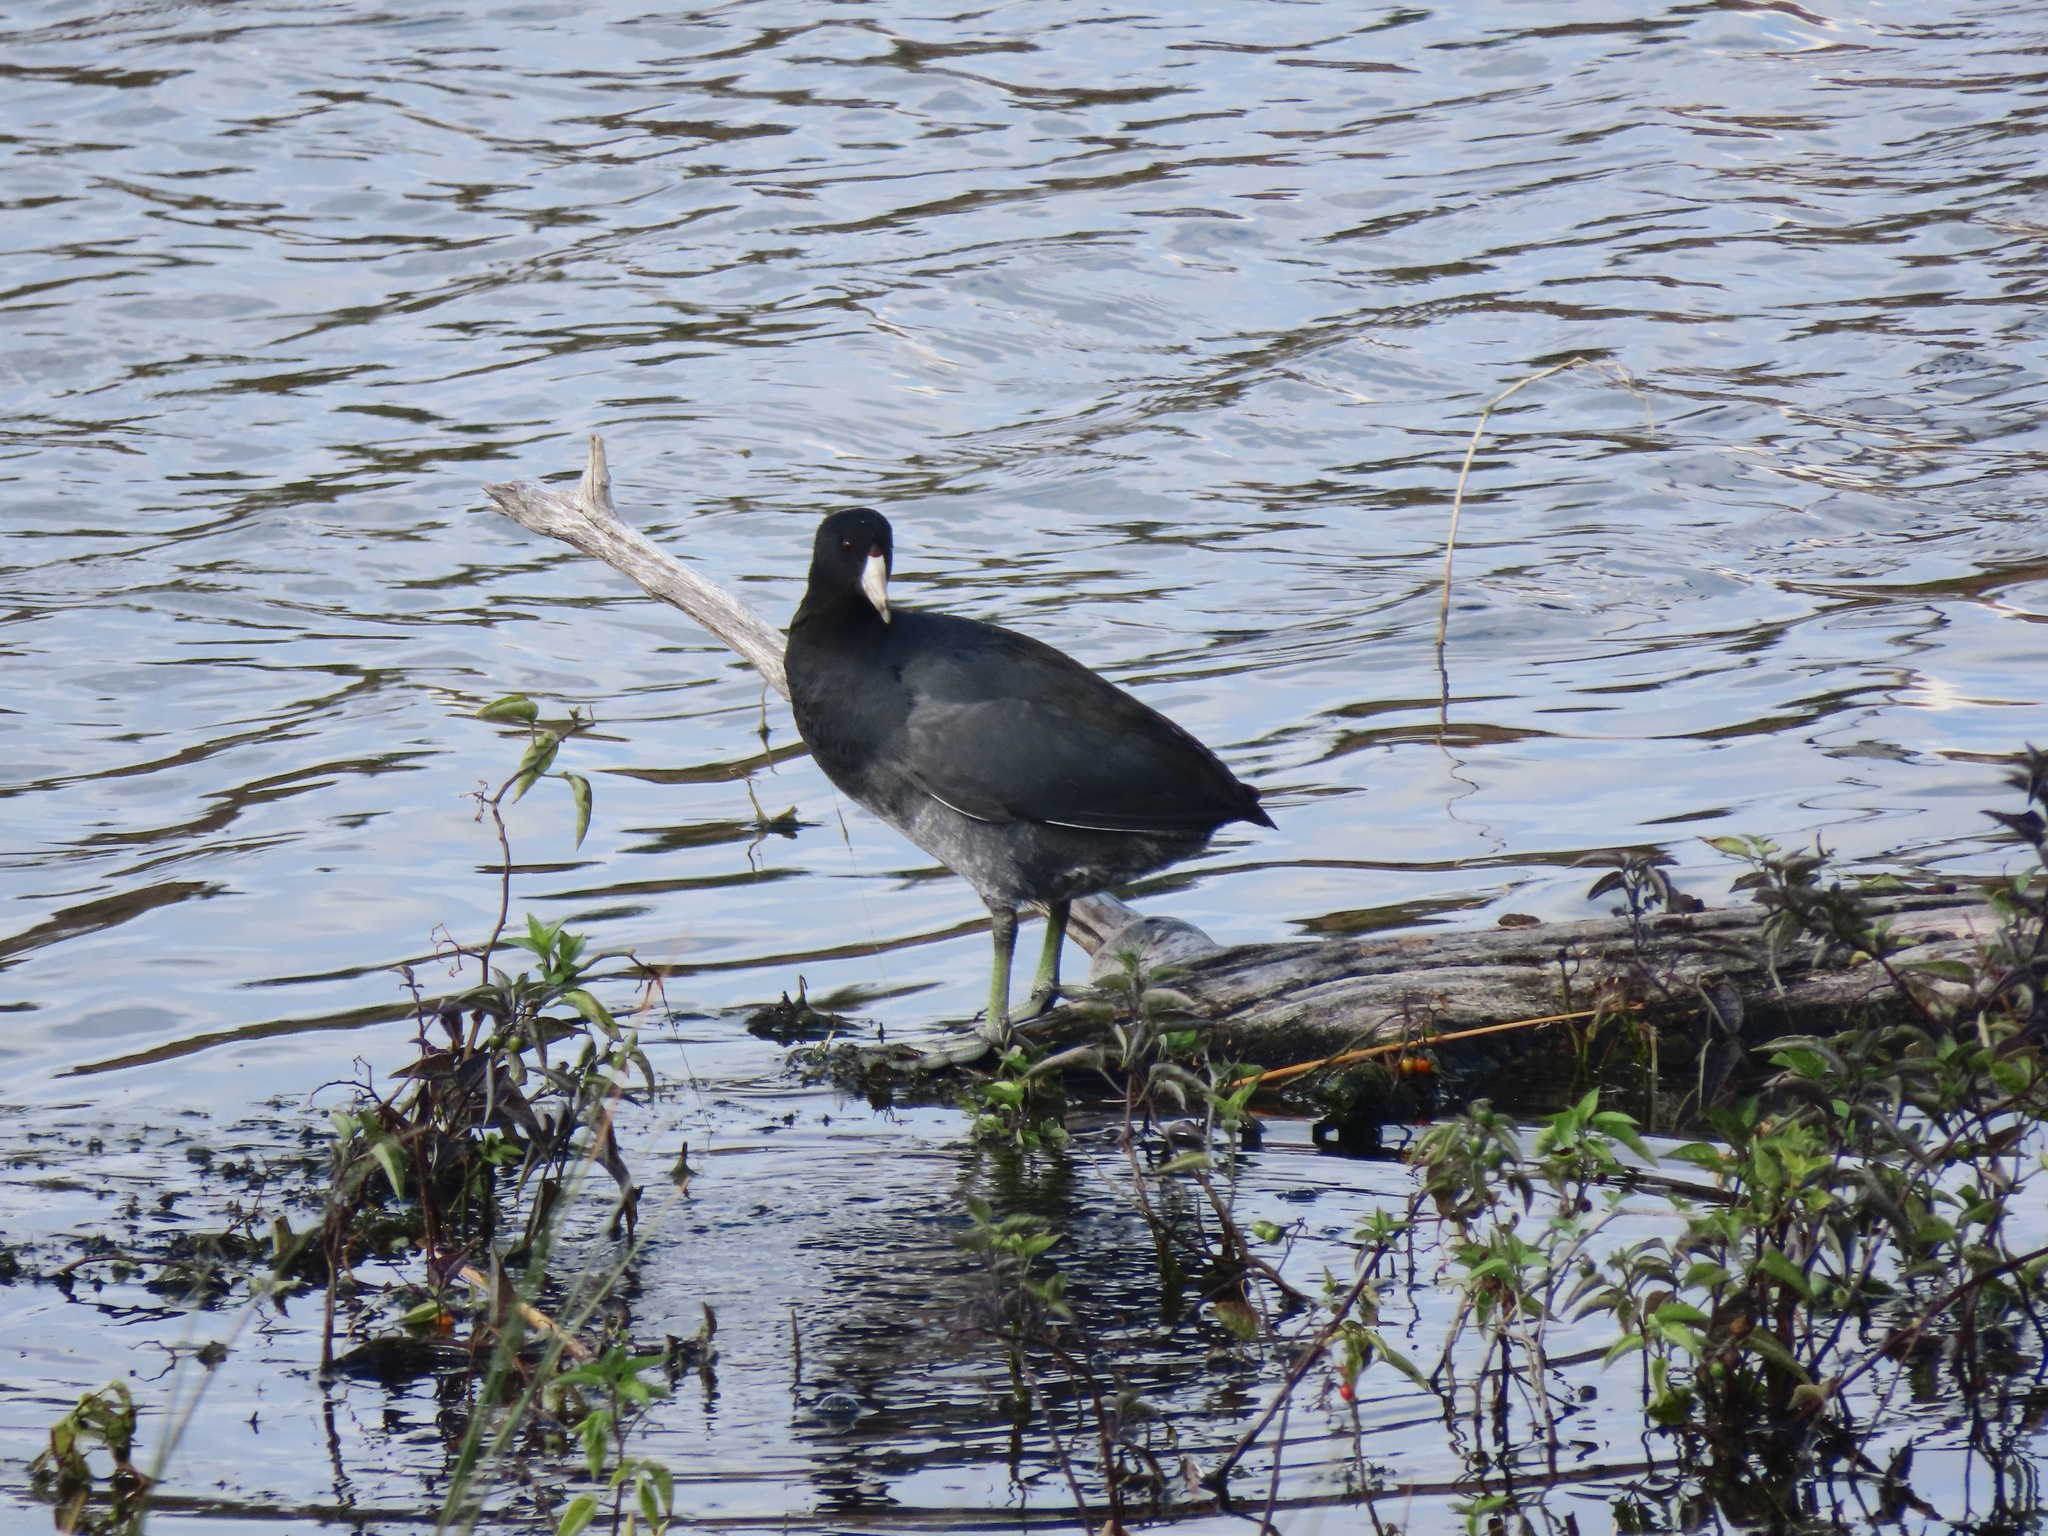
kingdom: Animalia
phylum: Chordata
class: Aves
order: Gruiformes
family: Rallidae
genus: Fulica
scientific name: Fulica americana
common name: American coot
